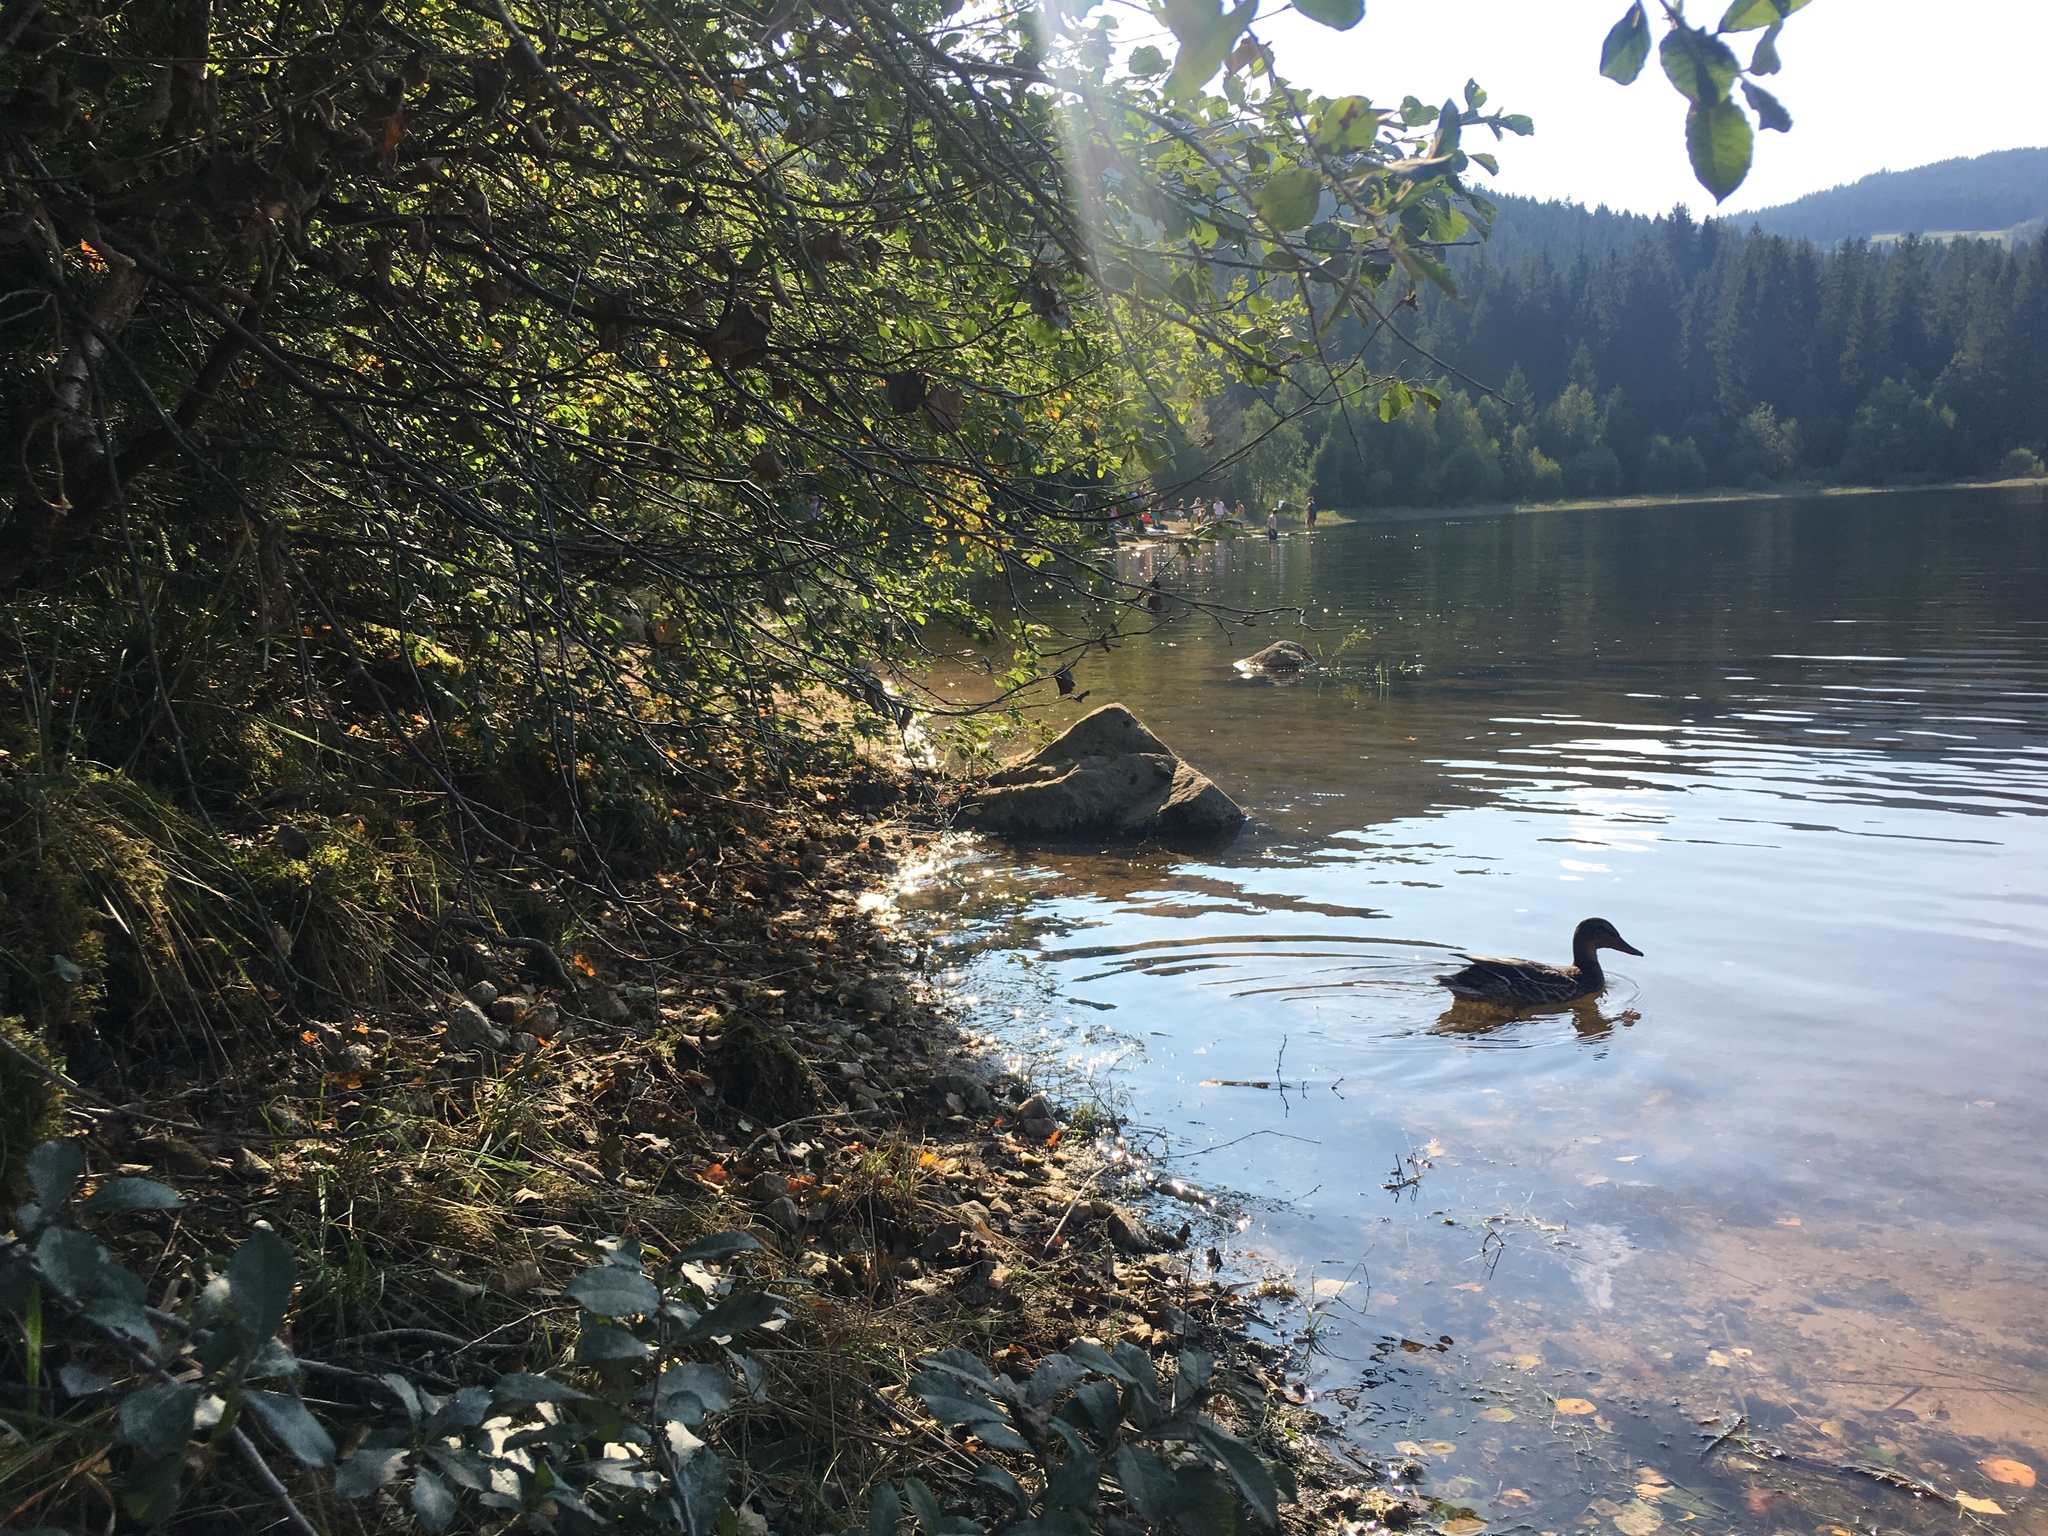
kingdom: Animalia
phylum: Chordata
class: Aves
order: Anseriformes
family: Anatidae
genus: Anas
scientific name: Anas platyrhynchos
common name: Mallard
